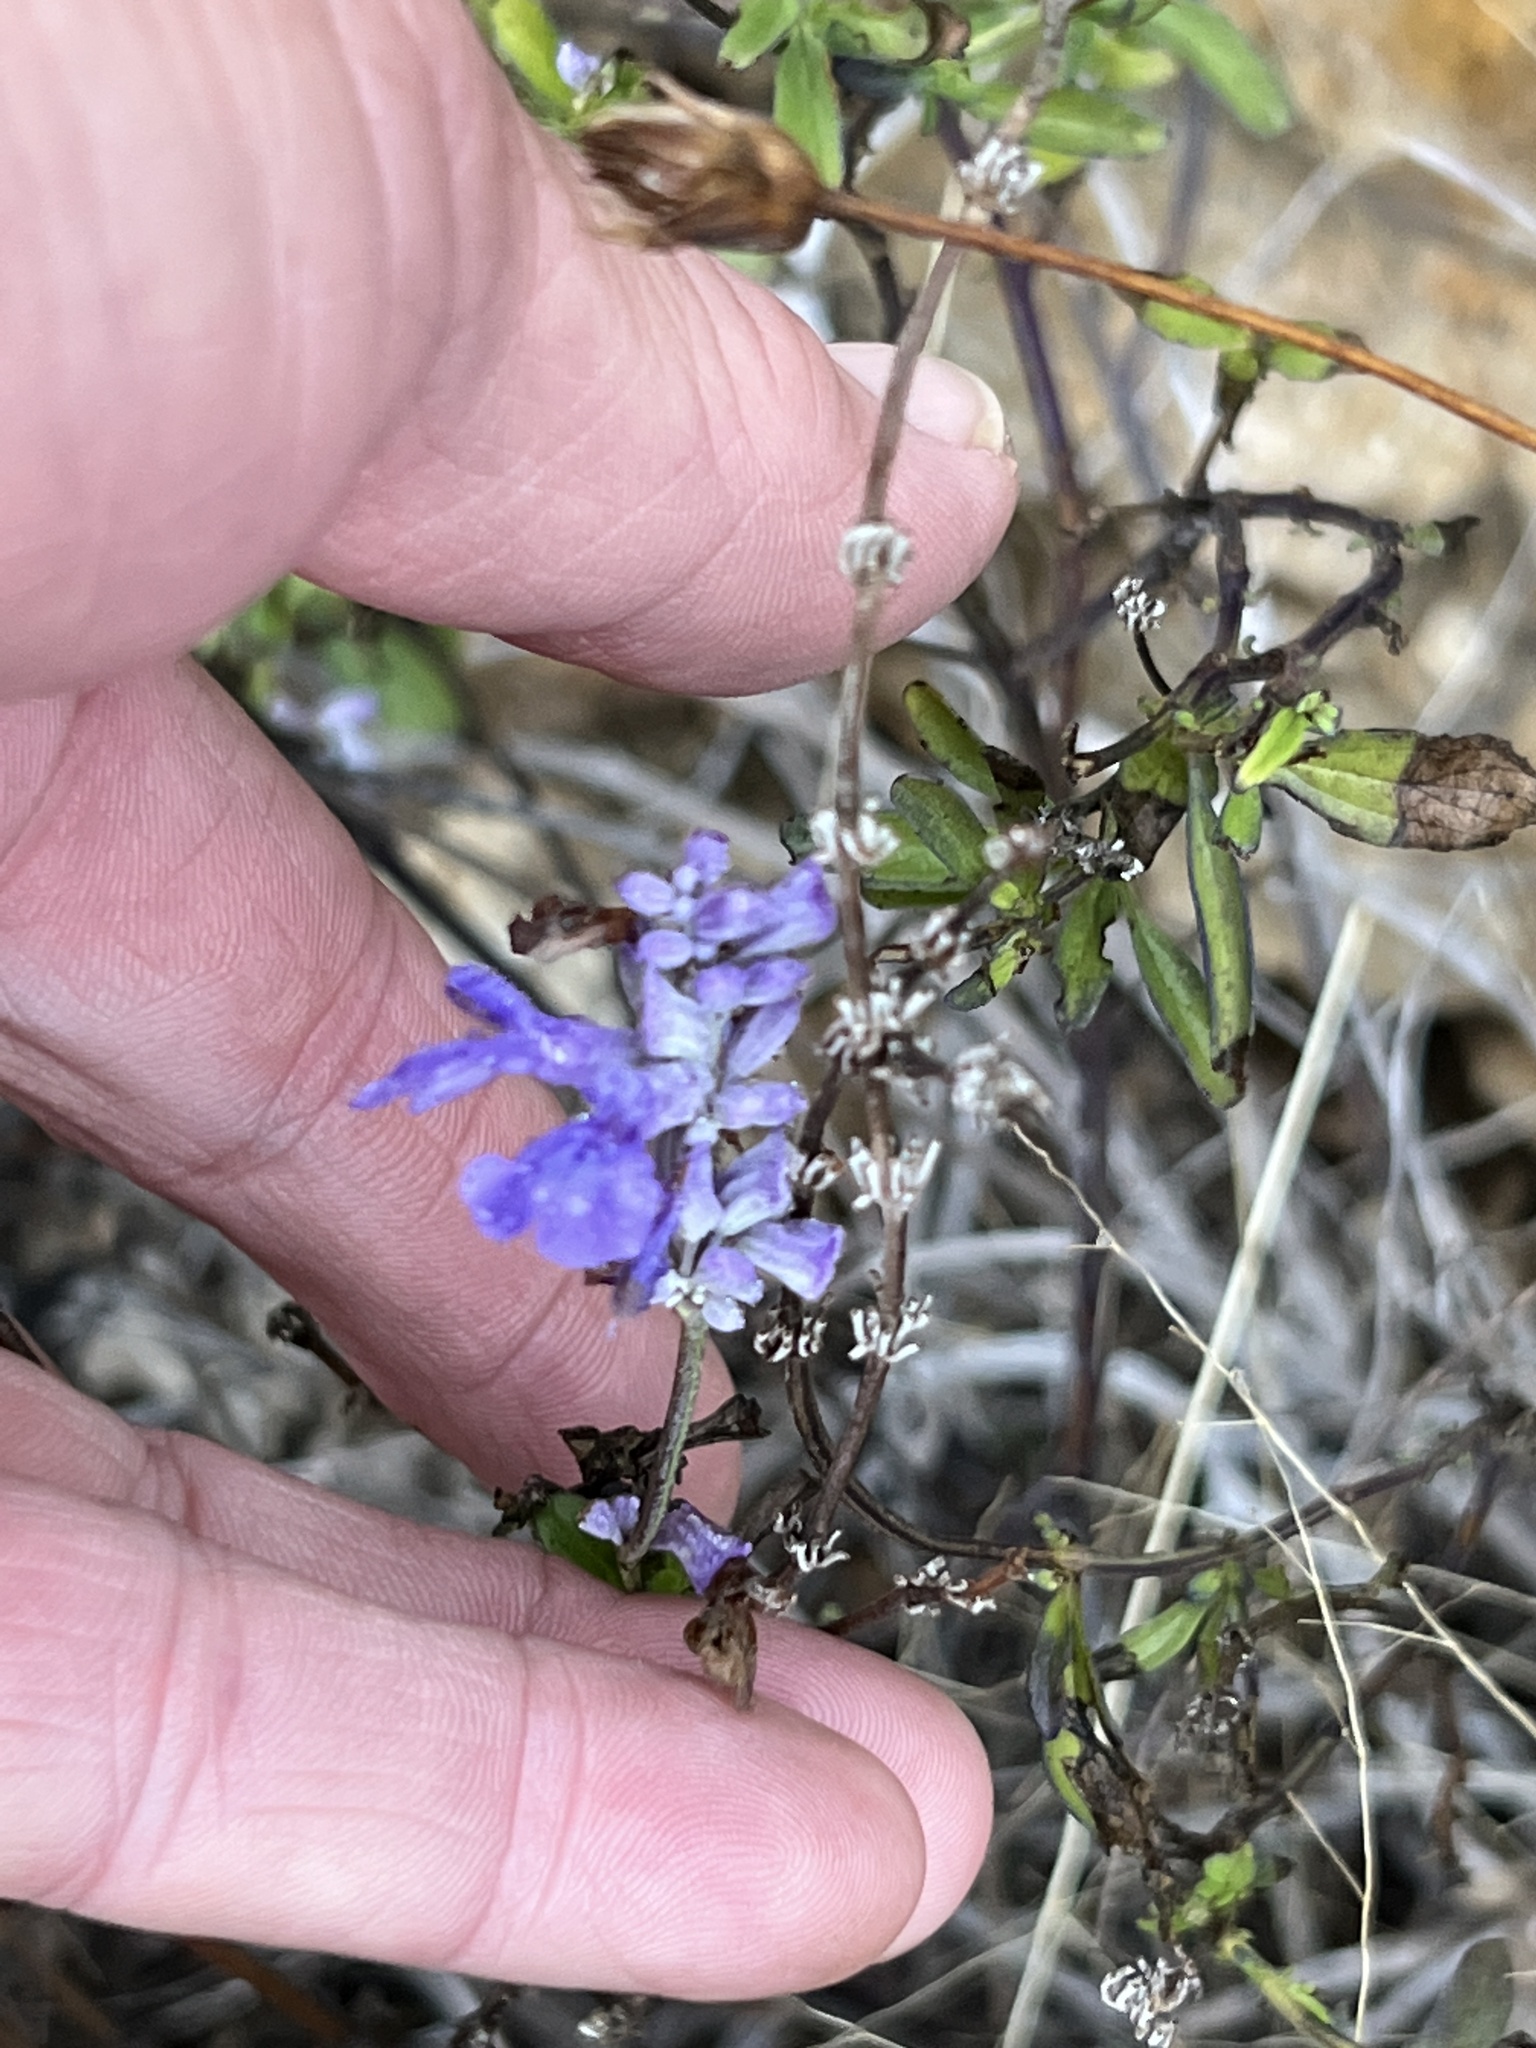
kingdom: Plantae
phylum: Tracheophyta
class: Magnoliopsida
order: Lamiales
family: Lamiaceae
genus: Salvia
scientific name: Salvia farinacea
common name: Mealy sage
